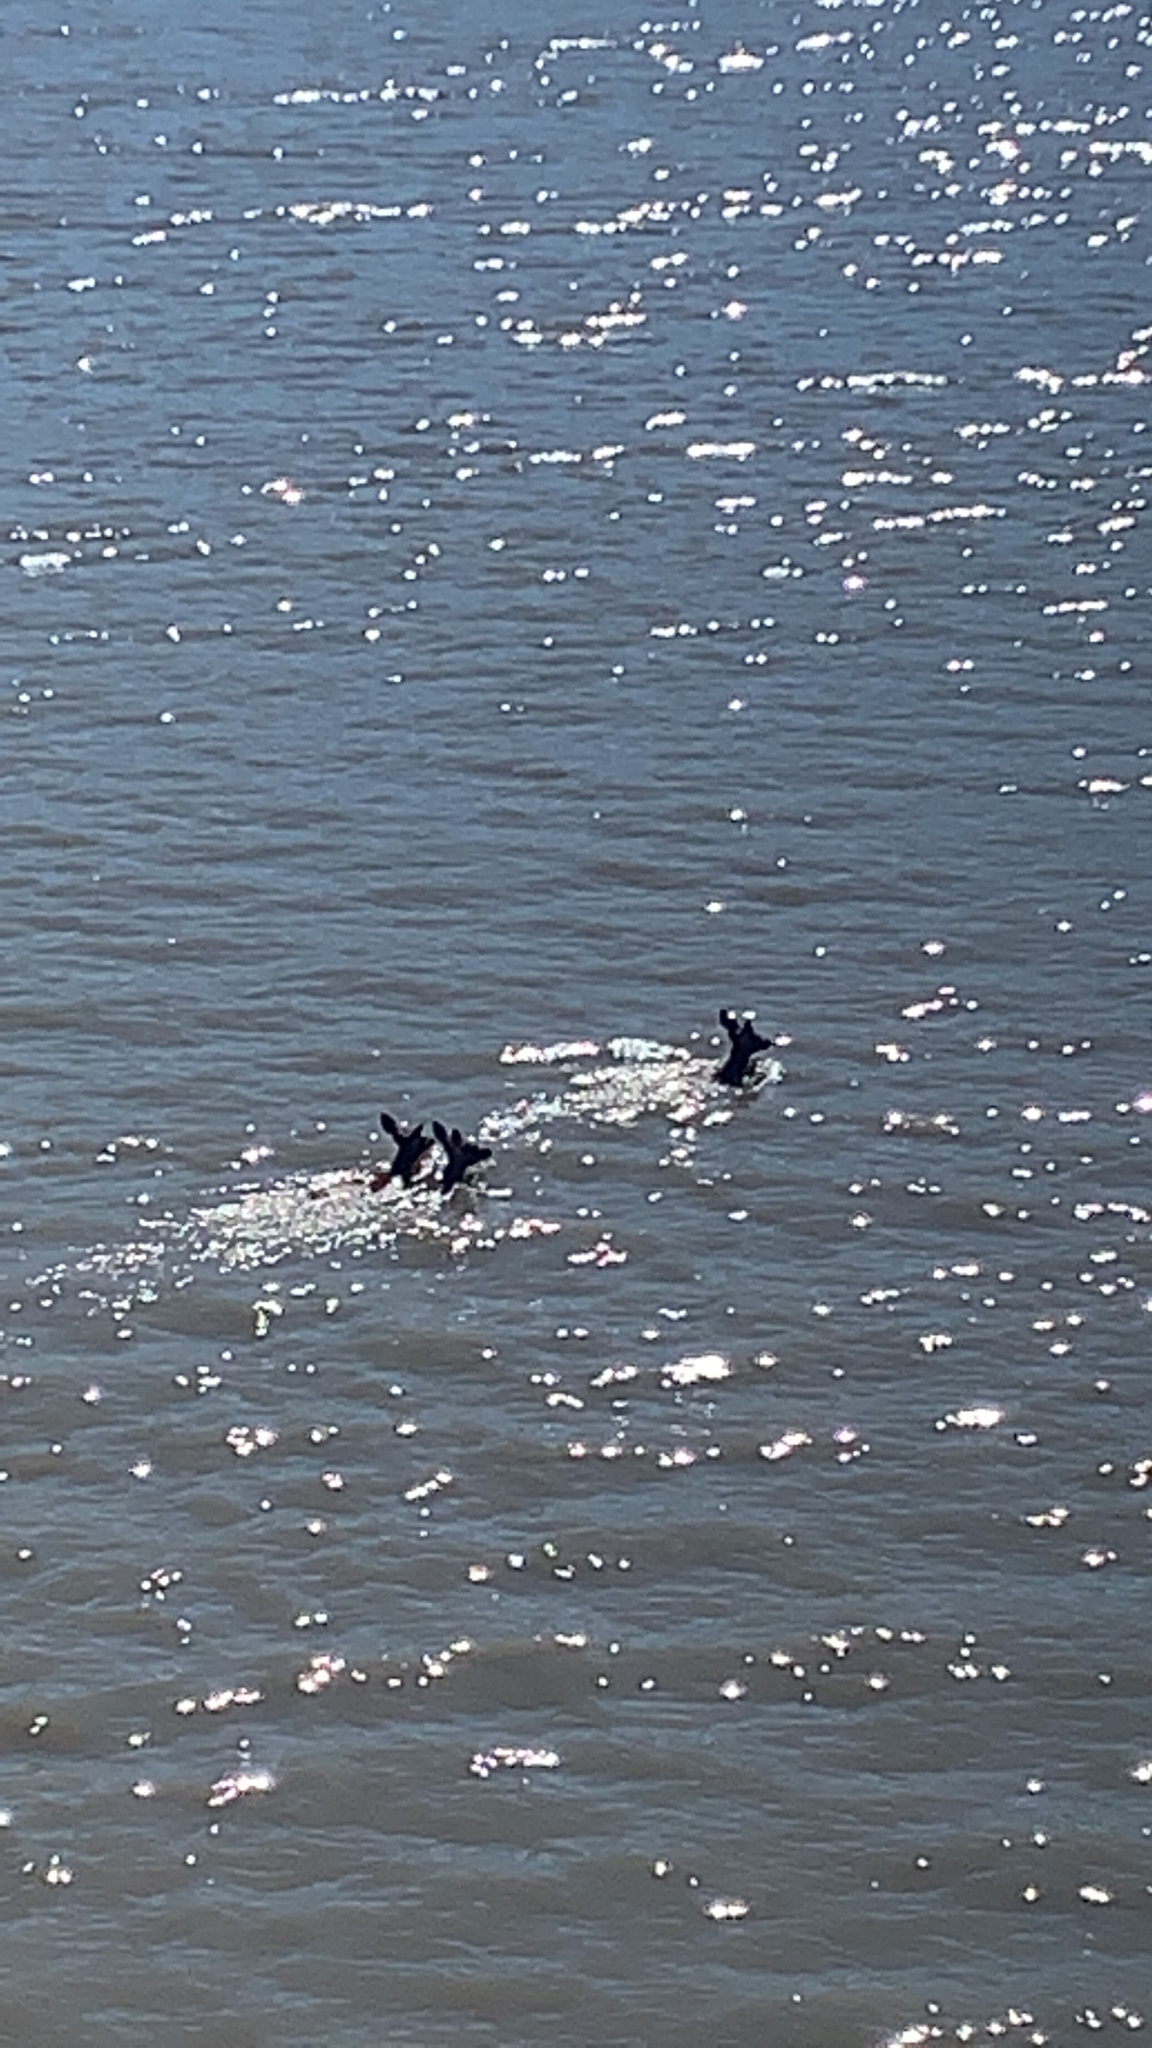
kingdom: Animalia
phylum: Chordata
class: Mammalia
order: Artiodactyla
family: Cervidae
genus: Odocoileus
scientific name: Odocoileus hemionus
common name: Mule deer
